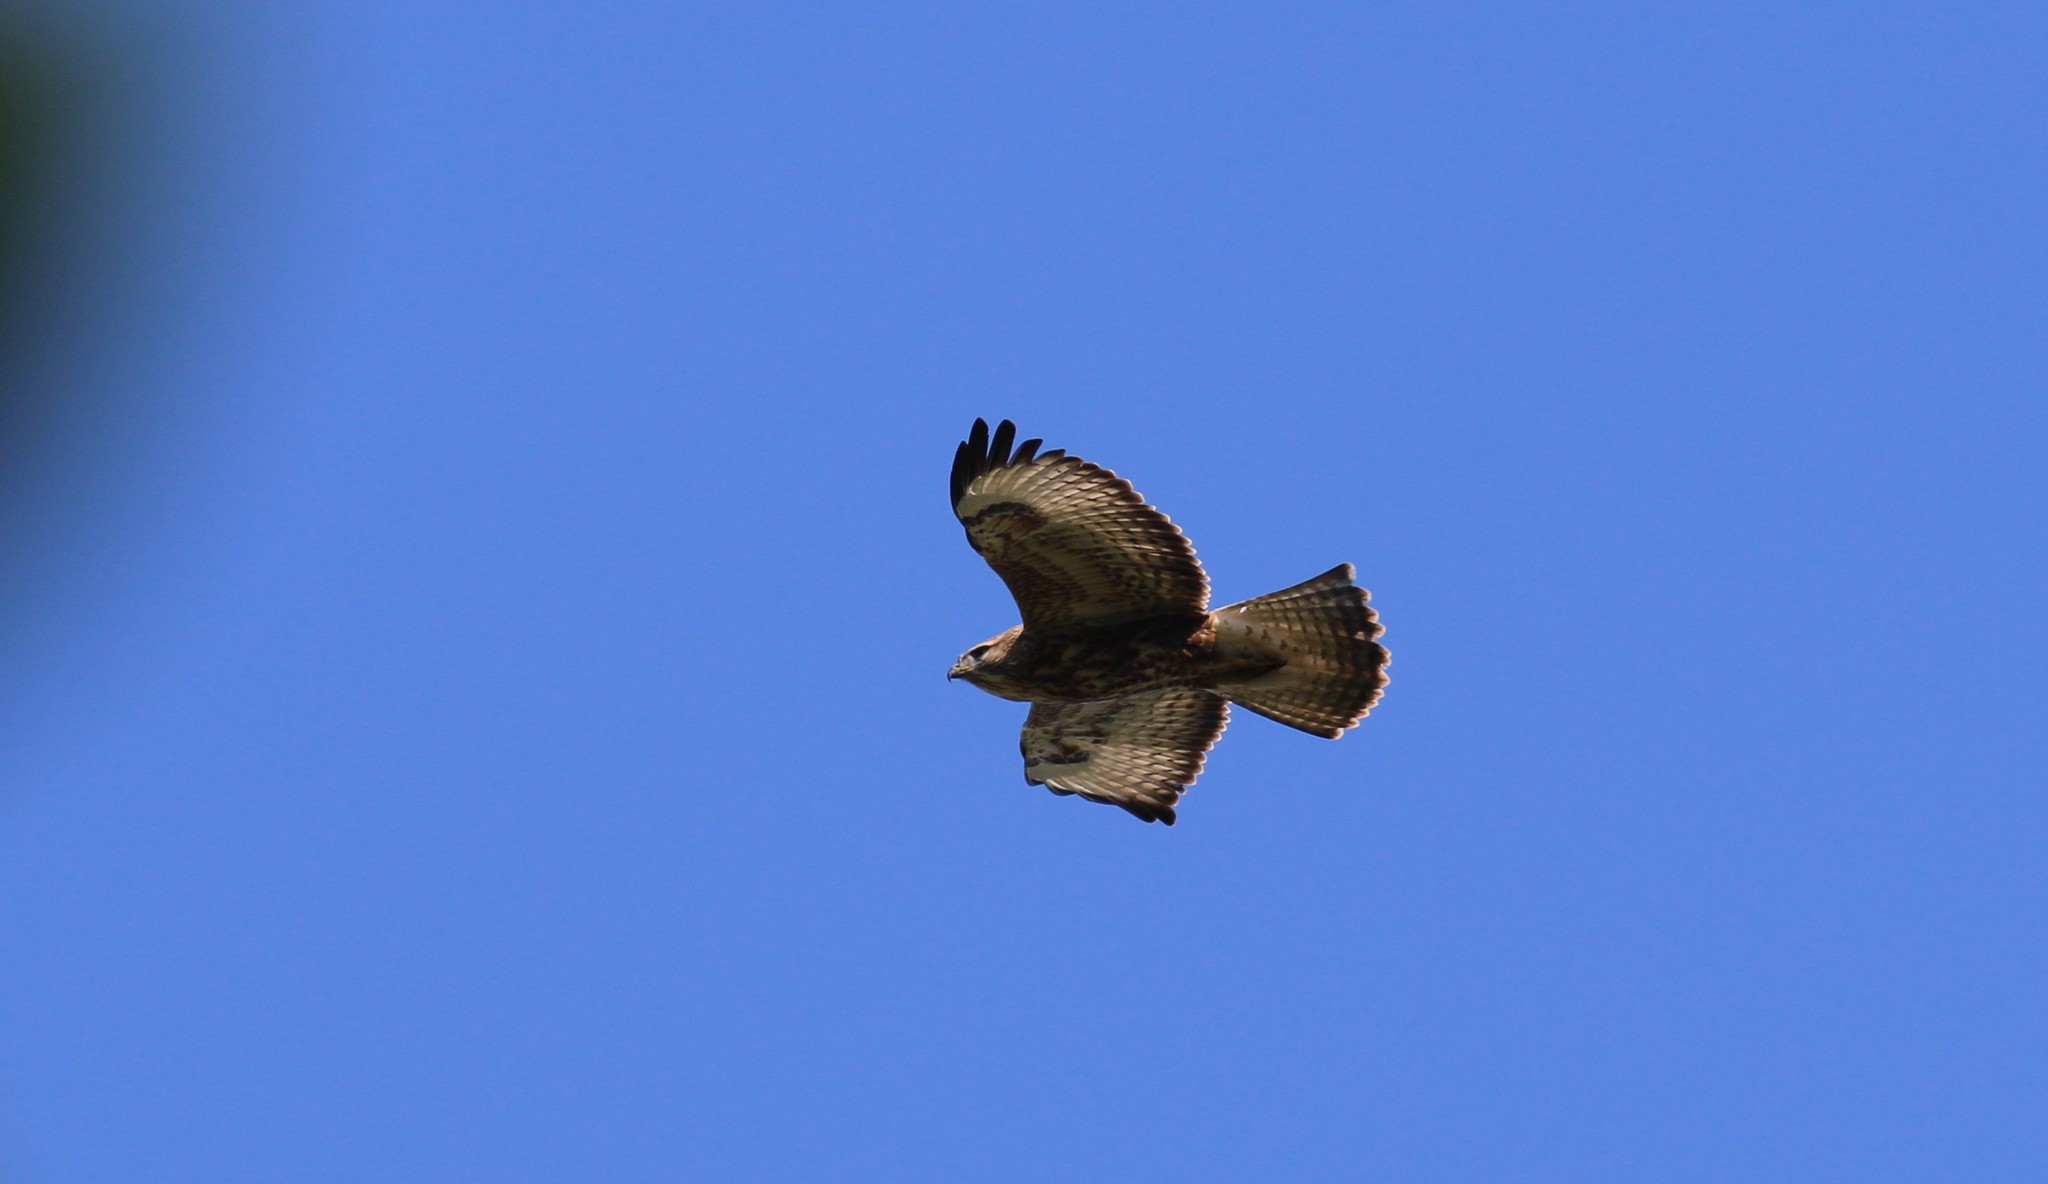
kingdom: Animalia
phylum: Chordata
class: Aves
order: Accipitriformes
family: Accipitridae
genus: Buteo
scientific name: Buteo buteo
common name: Common buzzard
